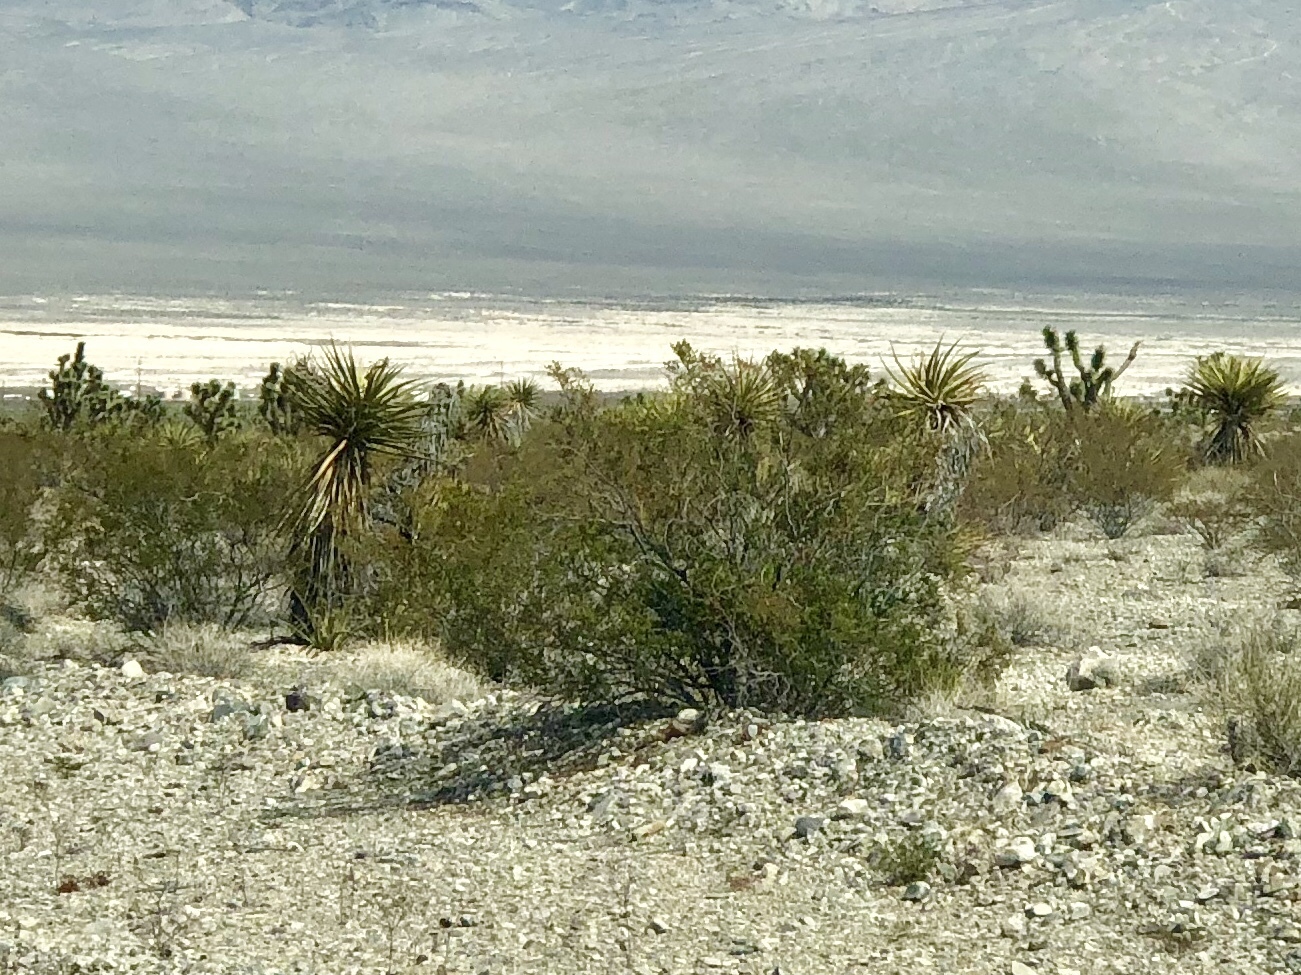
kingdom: Plantae
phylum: Tracheophyta
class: Magnoliopsida
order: Zygophyllales
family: Zygophyllaceae
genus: Larrea
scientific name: Larrea tridentata
